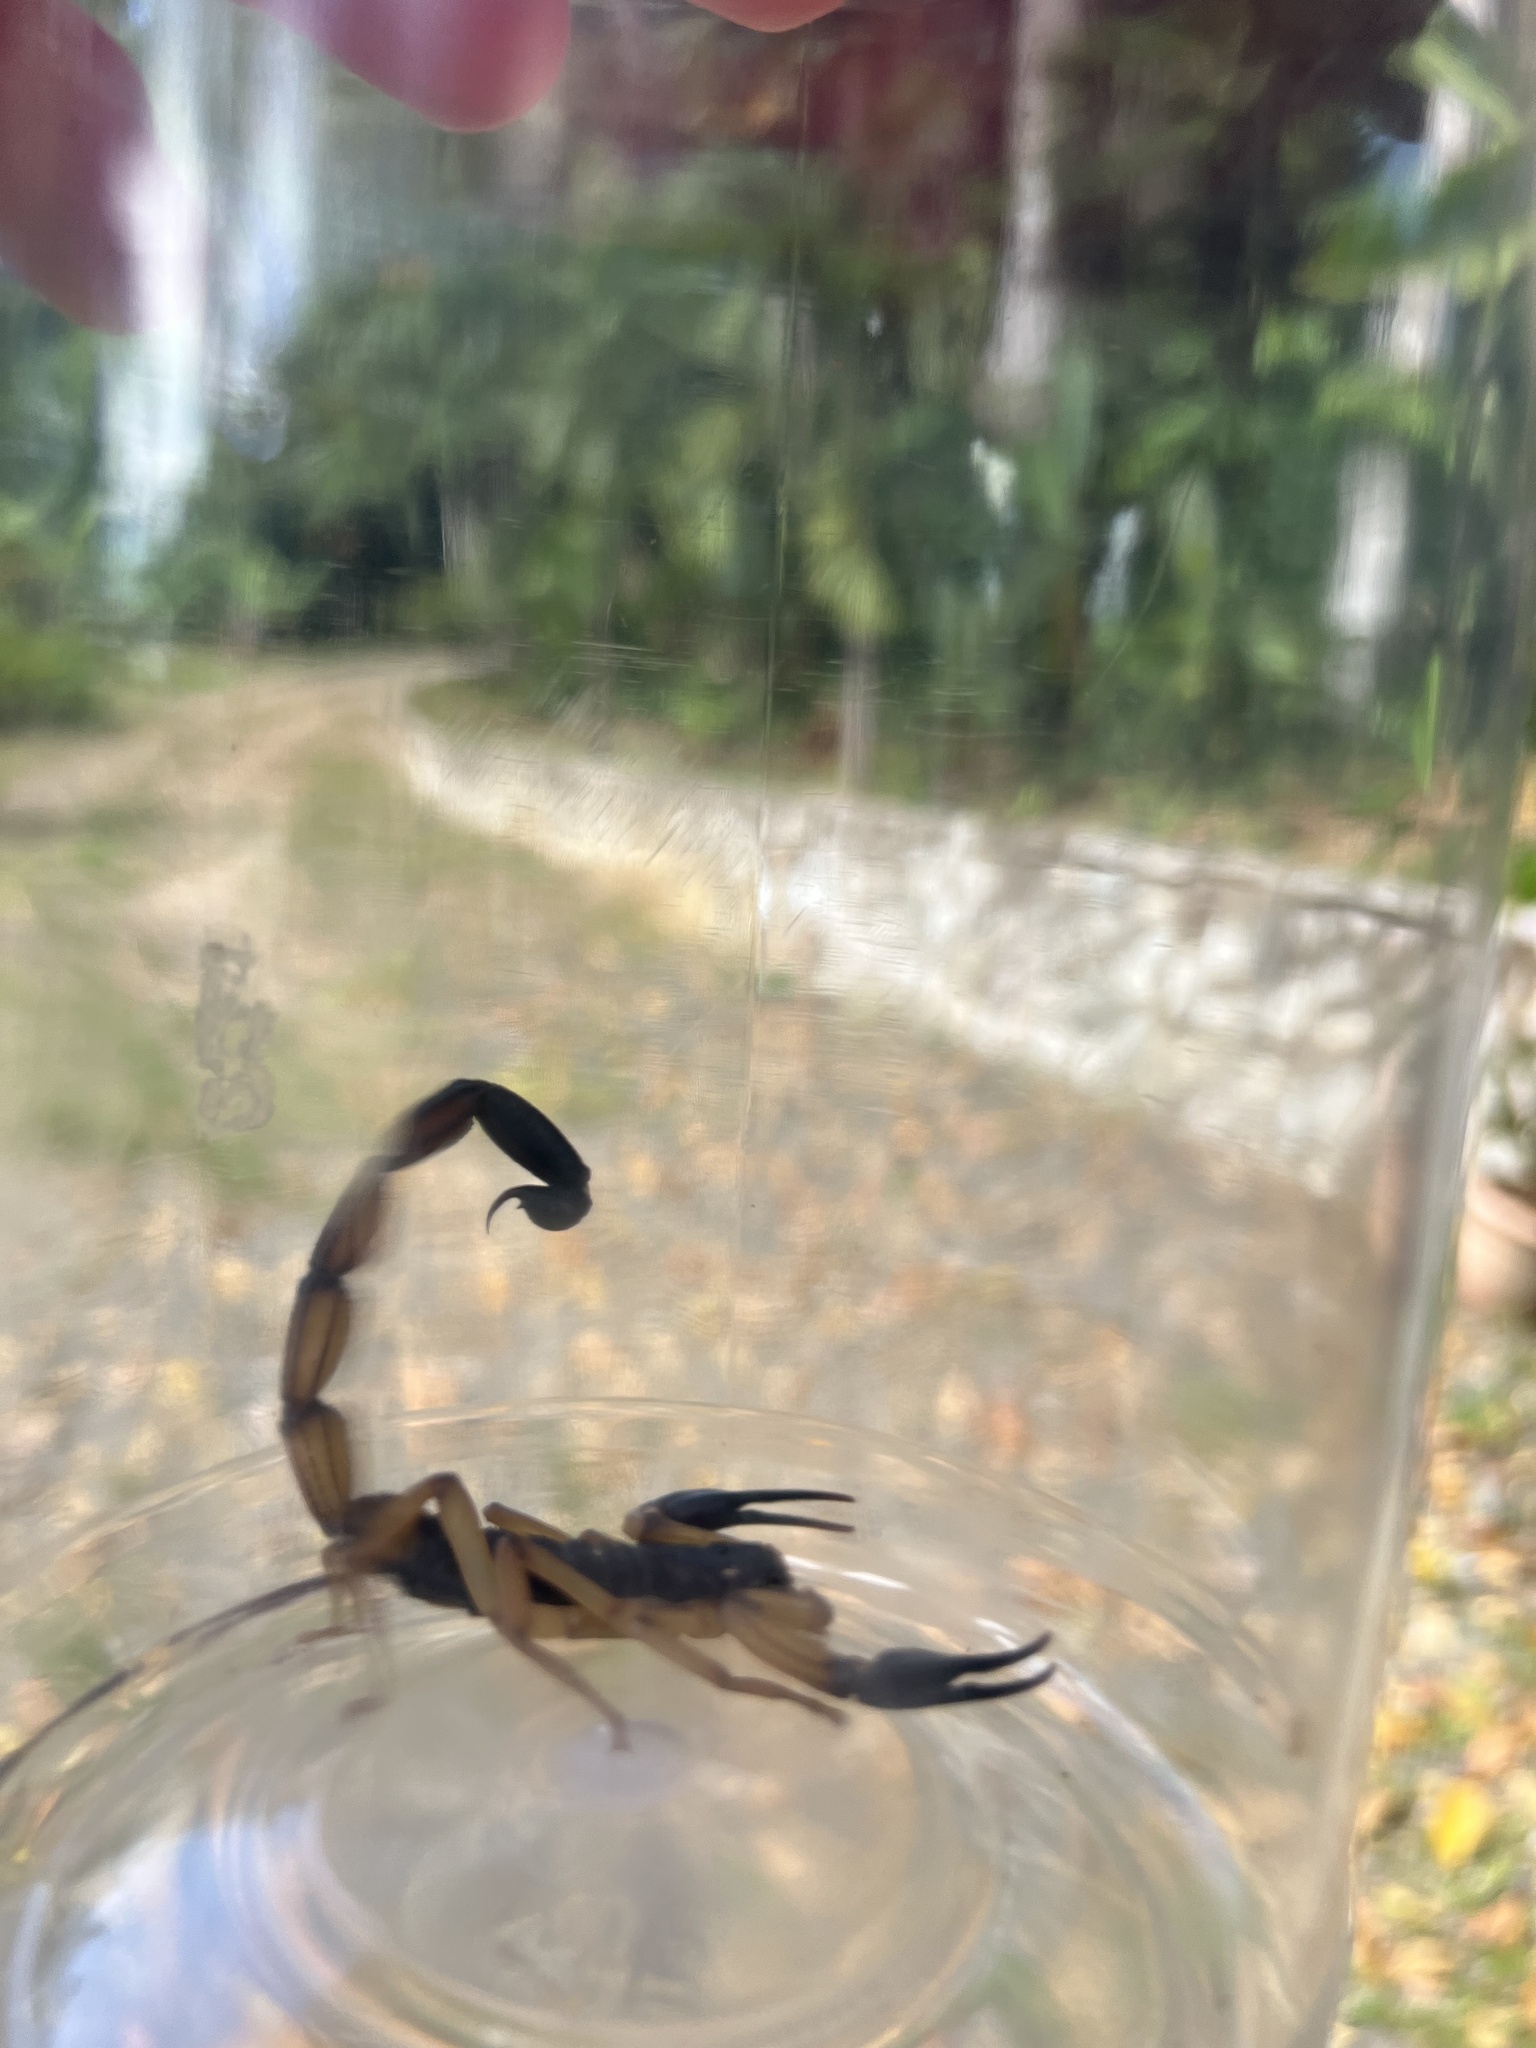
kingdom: Animalia
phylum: Arthropoda
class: Arachnida
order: Scorpiones
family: Buthidae
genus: Centruroides
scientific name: Centruroides bicolor
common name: Scorpions
